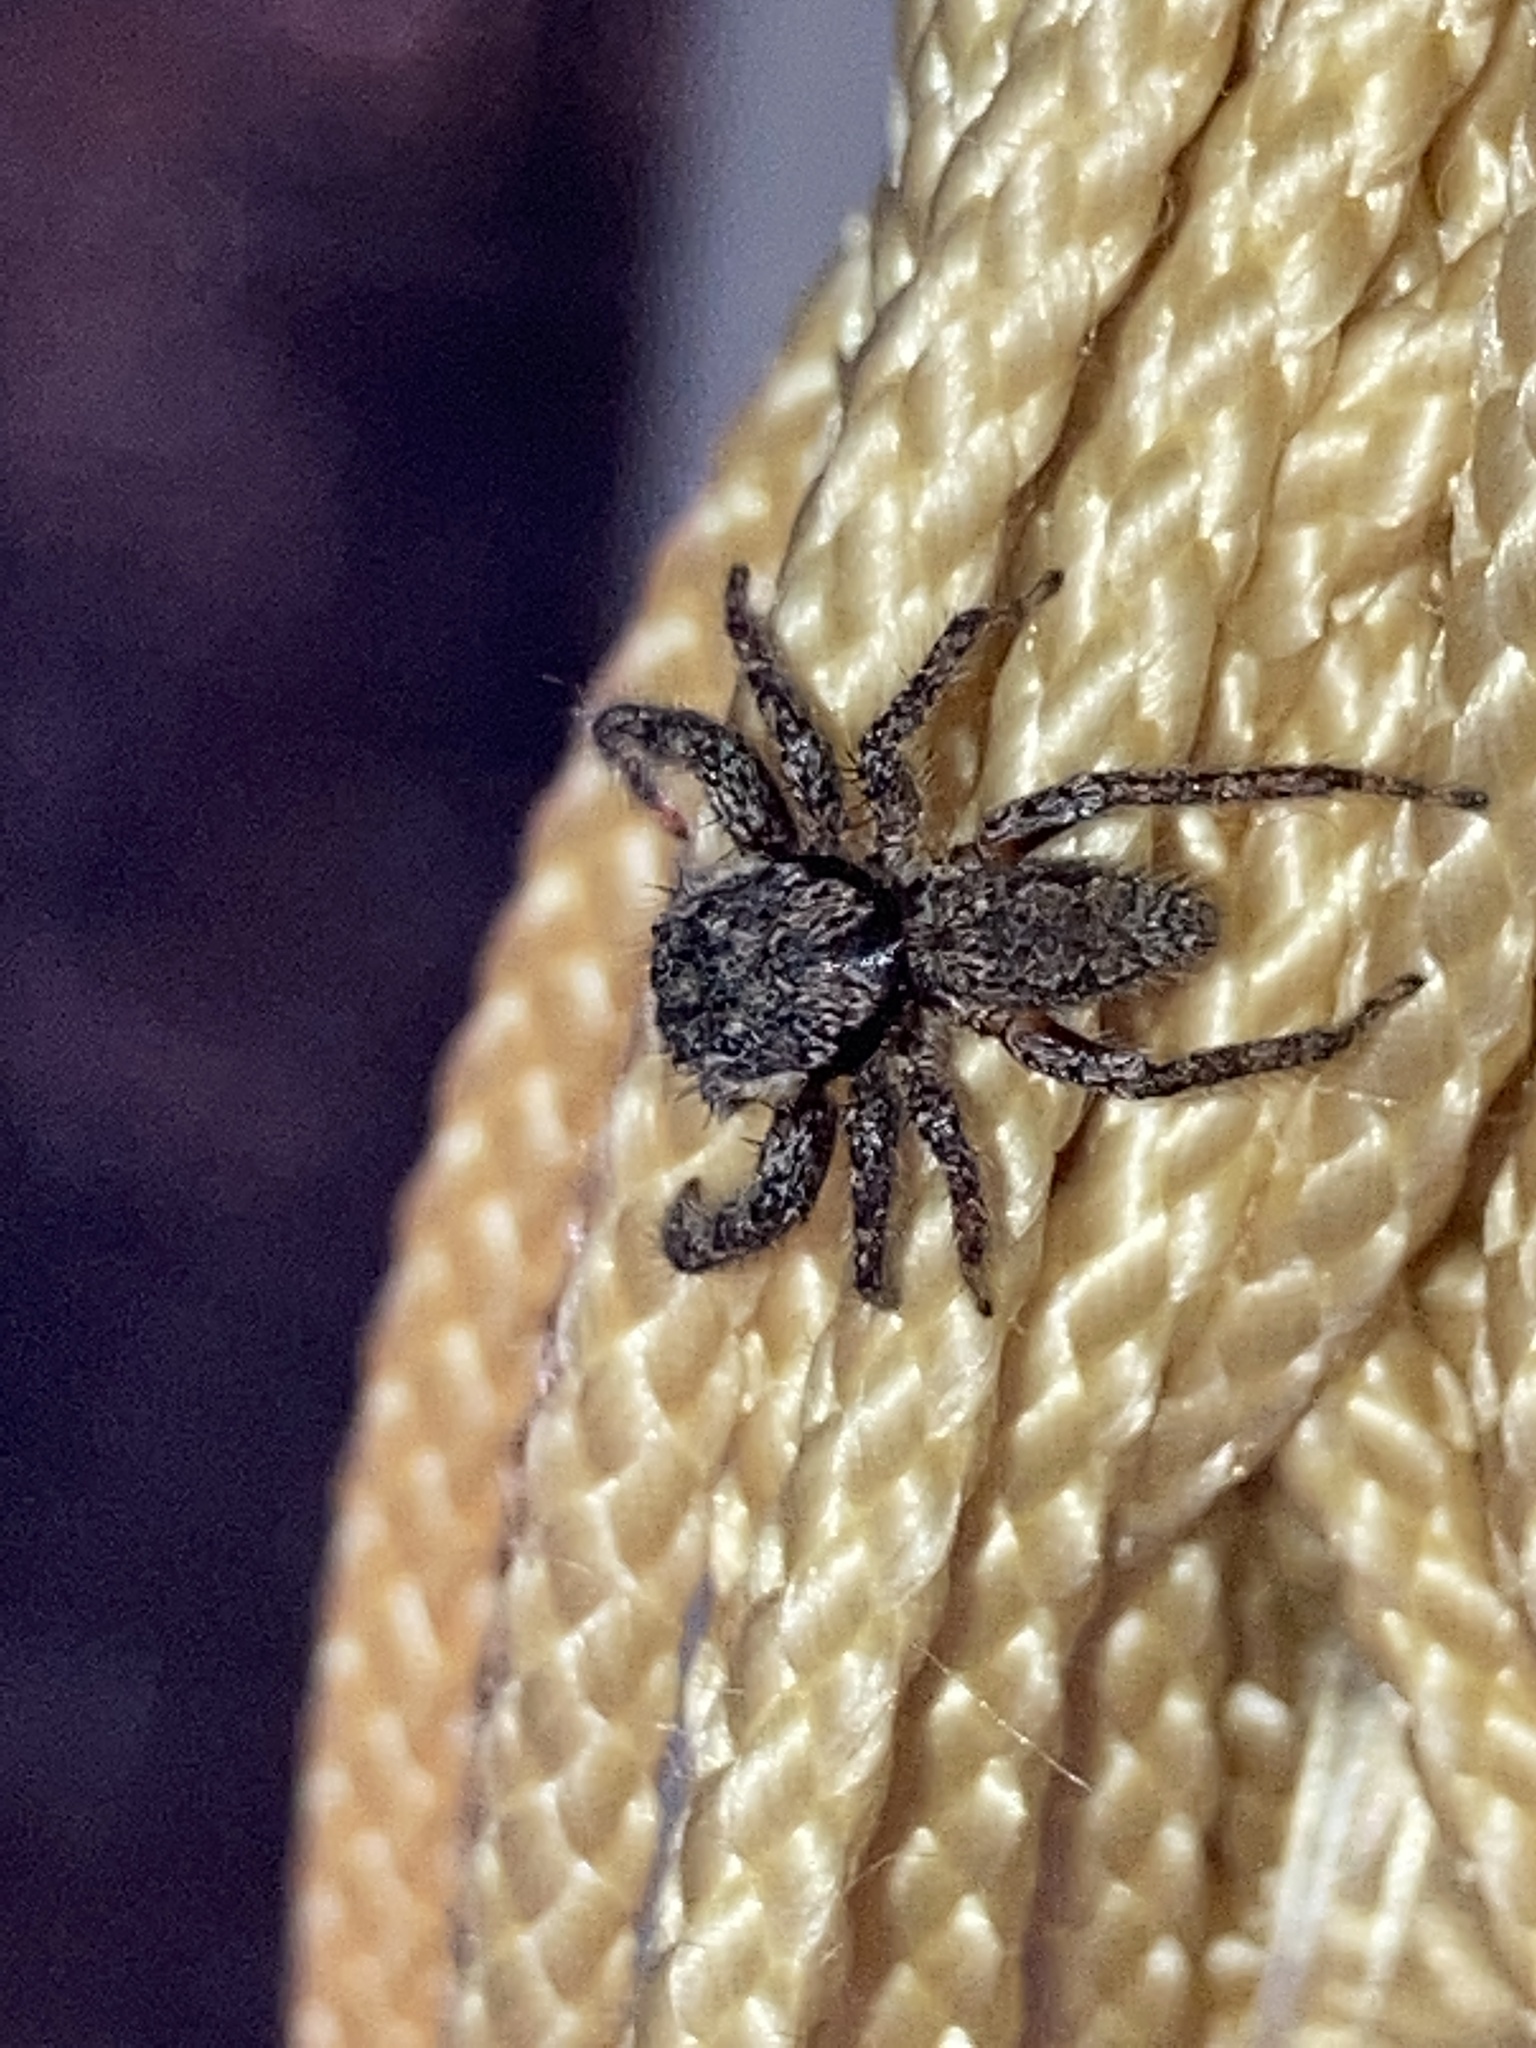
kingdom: Animalia
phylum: Arthropoda
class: Arachnida
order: Araneae
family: Salticidae
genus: Platycryptus
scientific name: Platycryptus undatus
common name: Tan jumping spider
